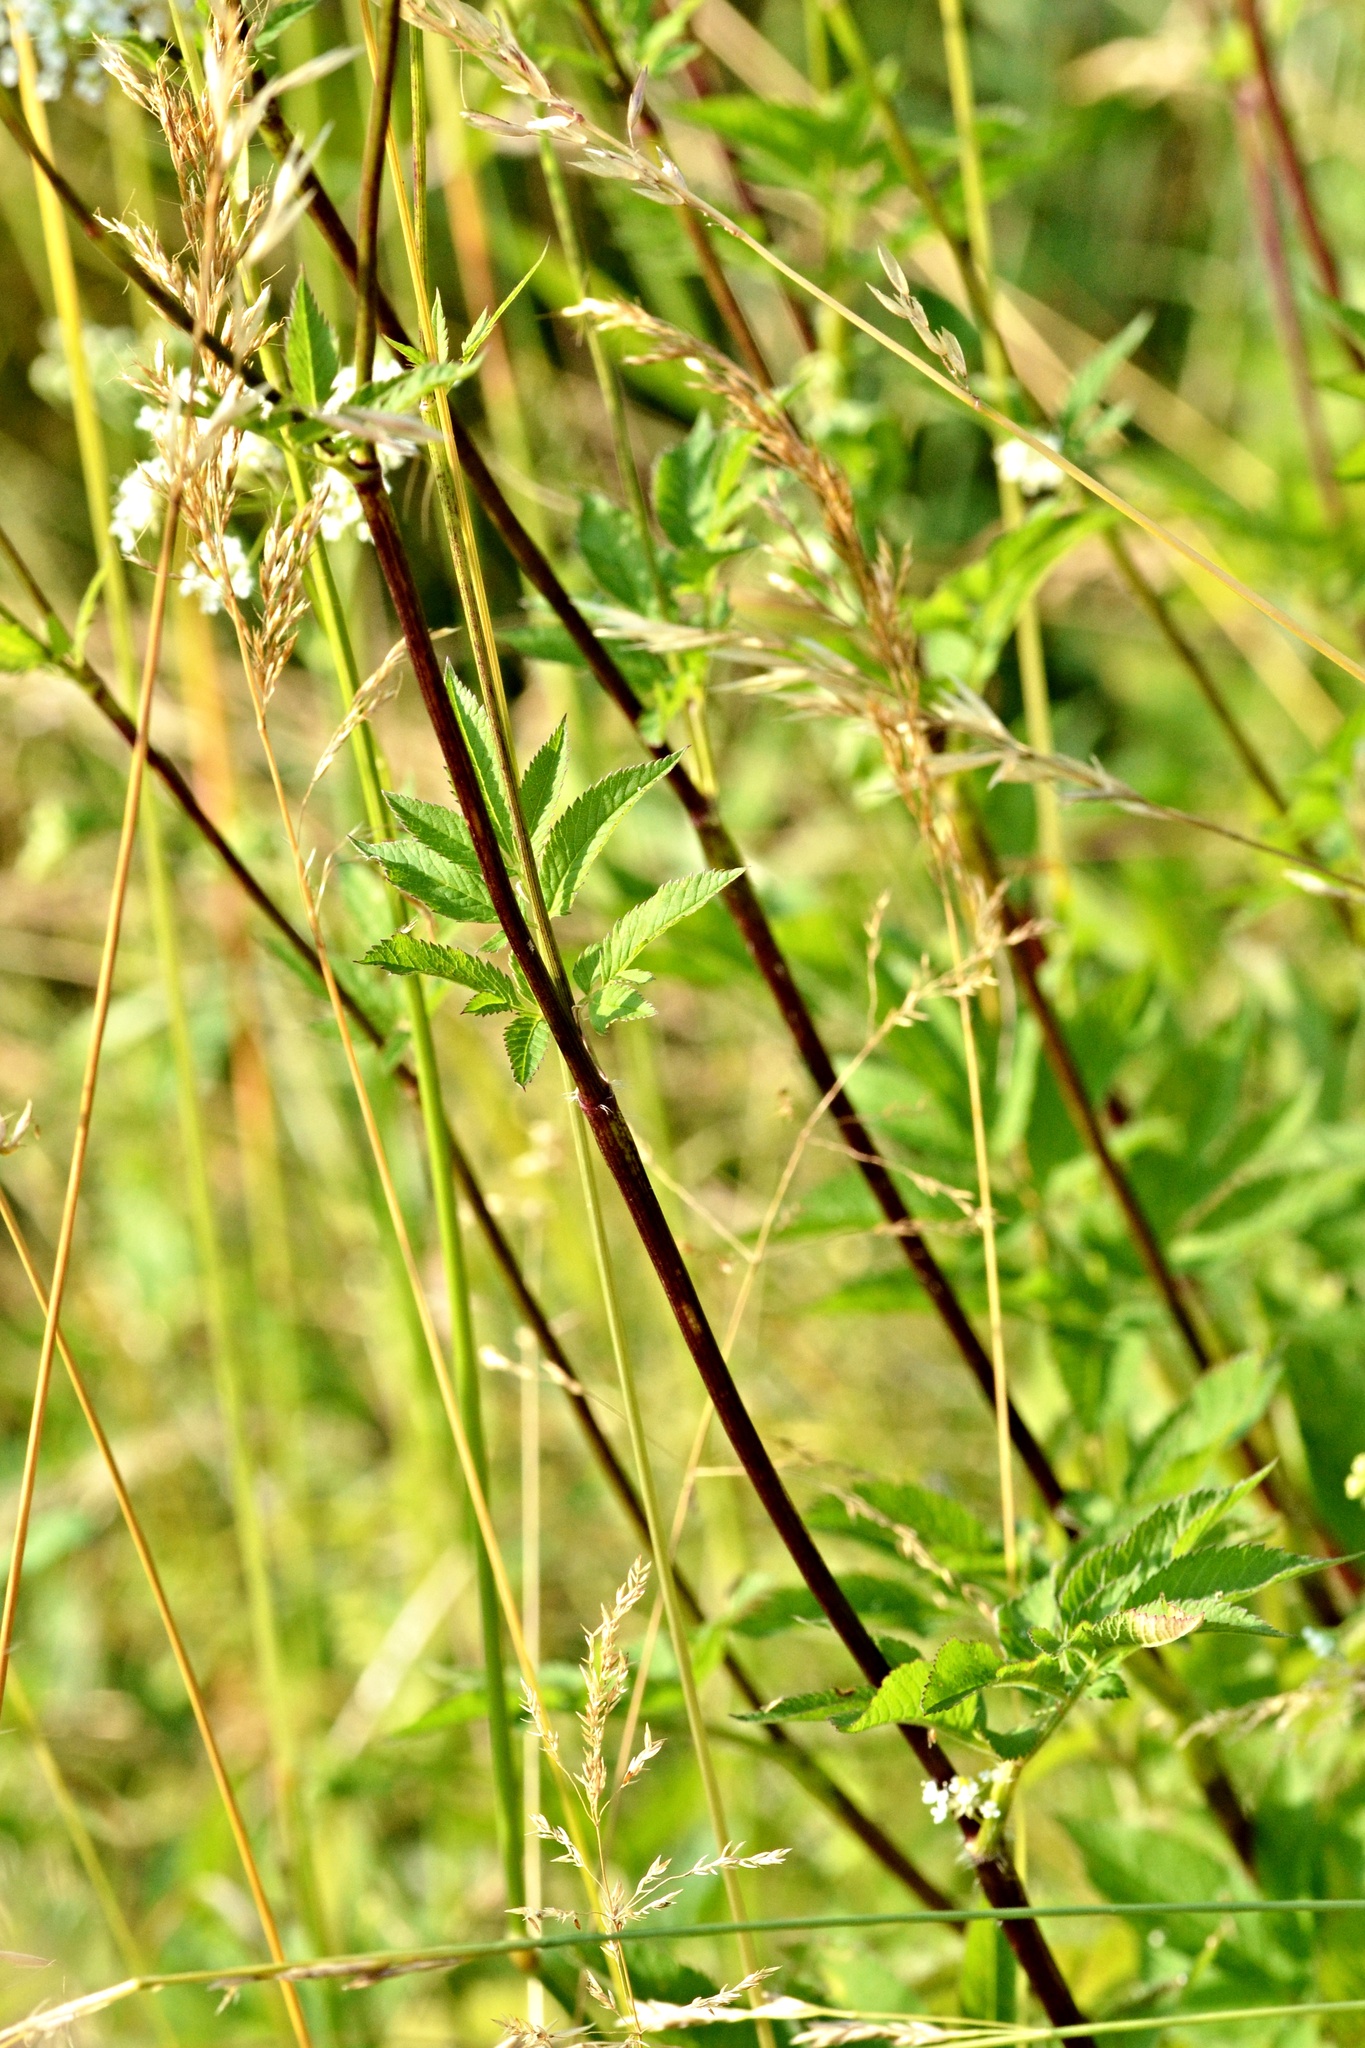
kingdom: Plantae
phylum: Tracheophyta
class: Magnoliopsida
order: Apiales
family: Apiaceae
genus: Chaerophyllum
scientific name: Chaerophyllum aromaticum
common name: Broadleaf chervil
